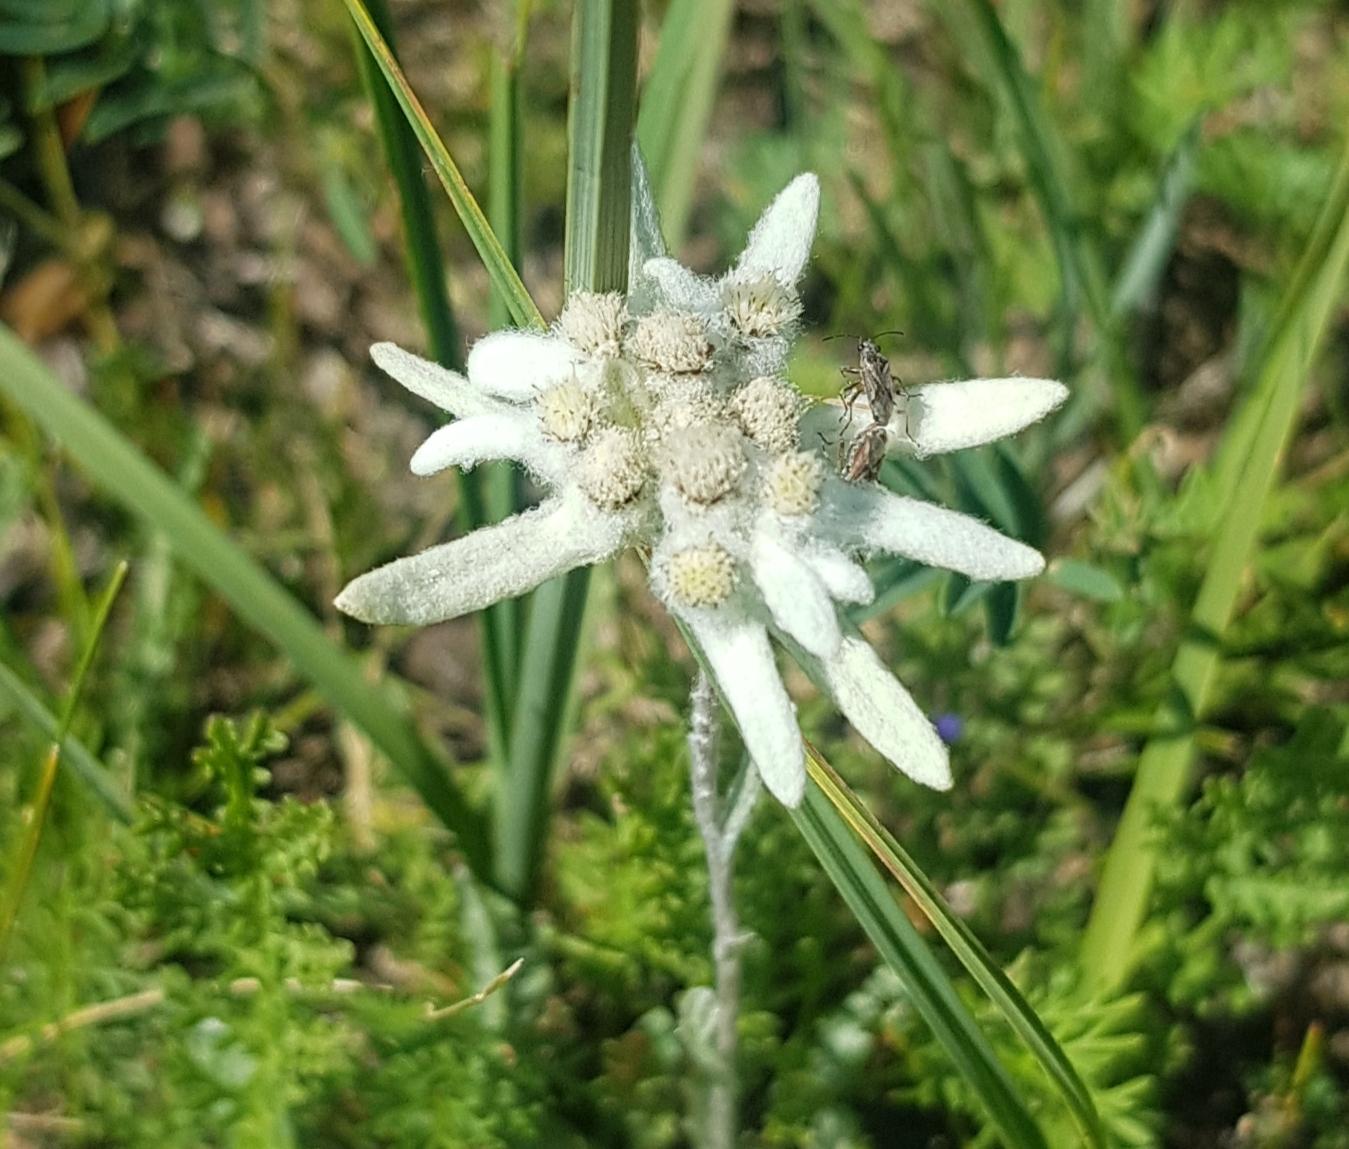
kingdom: Plantae
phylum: Tracheophyta
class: Magnoliopsida
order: Asterales
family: Asteraceae
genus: Leontopodium
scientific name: Leontopodium leontopodioides
